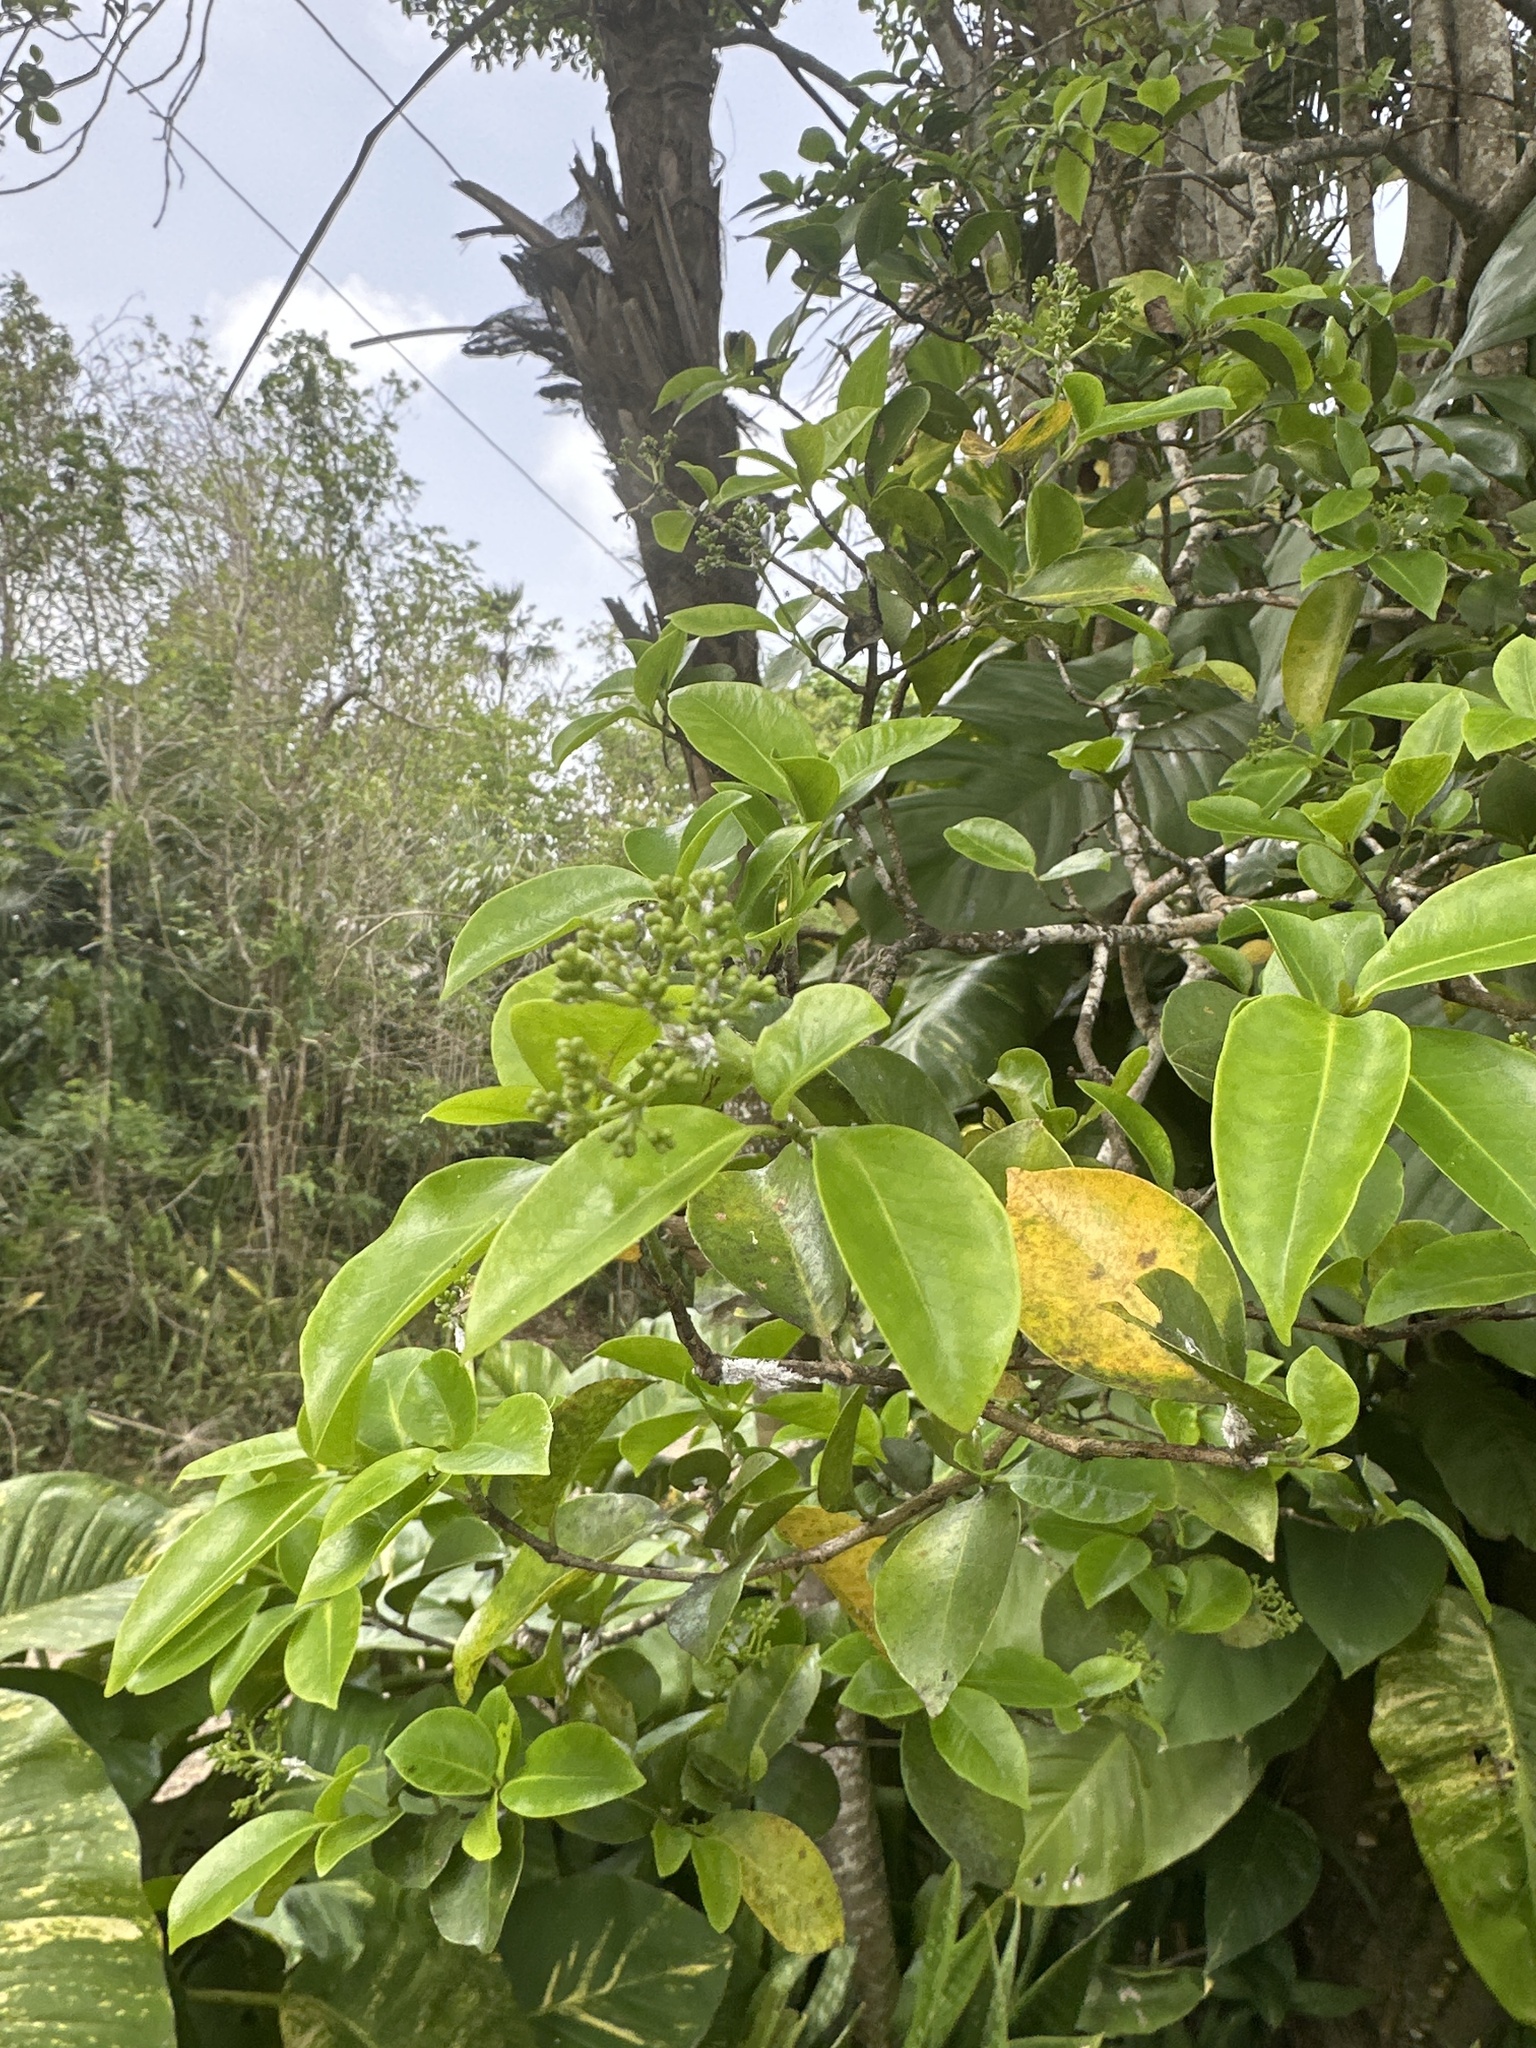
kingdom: Plantae
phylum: Tracheophyta
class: Magnoliopsida
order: Caryophyllales
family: Nyctaginaceae
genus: Guapira
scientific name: Guapira fragrans
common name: Black loblolly tree
